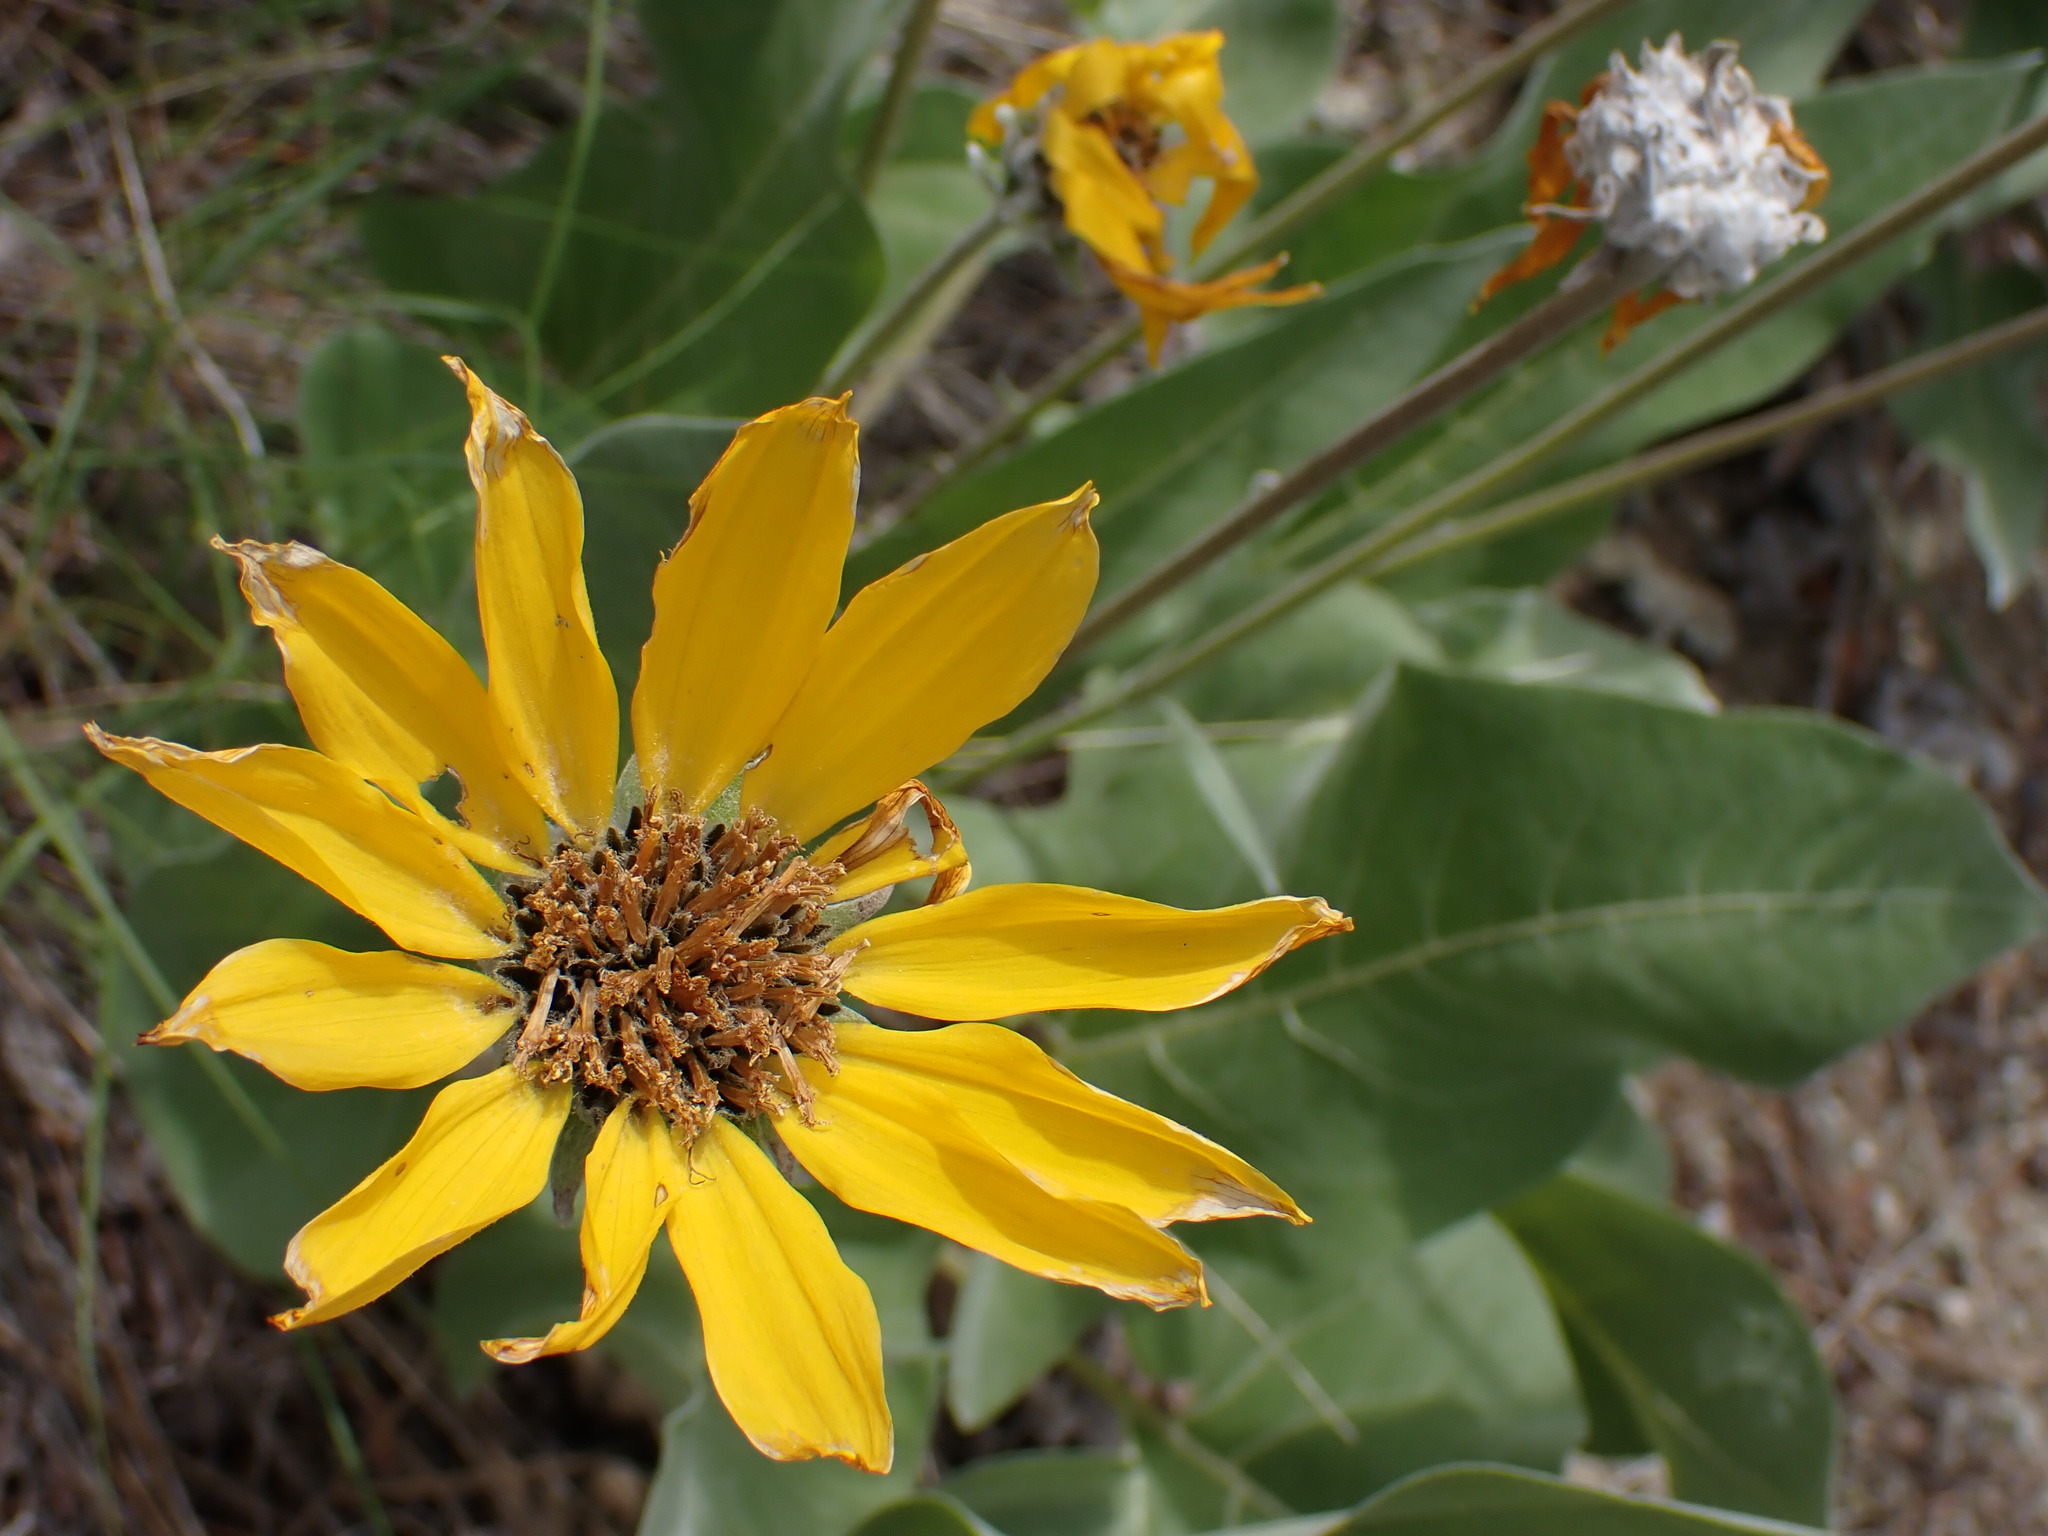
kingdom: Plantae
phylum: Tracheophyta
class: Magnoliopsida
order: Asterales
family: Asteraceae
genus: Wyethia
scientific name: Wyethia sagittata
